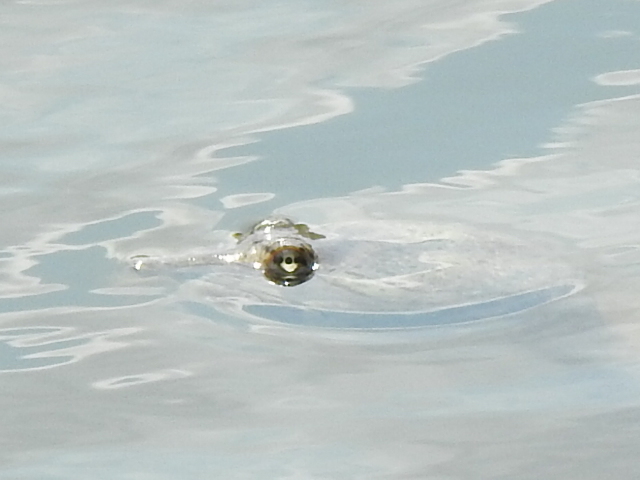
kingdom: Animalia
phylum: Chordata
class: Testudines
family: Trionychidae
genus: Apalone
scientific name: Apalone spinifera
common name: Spiny softshell turtle
